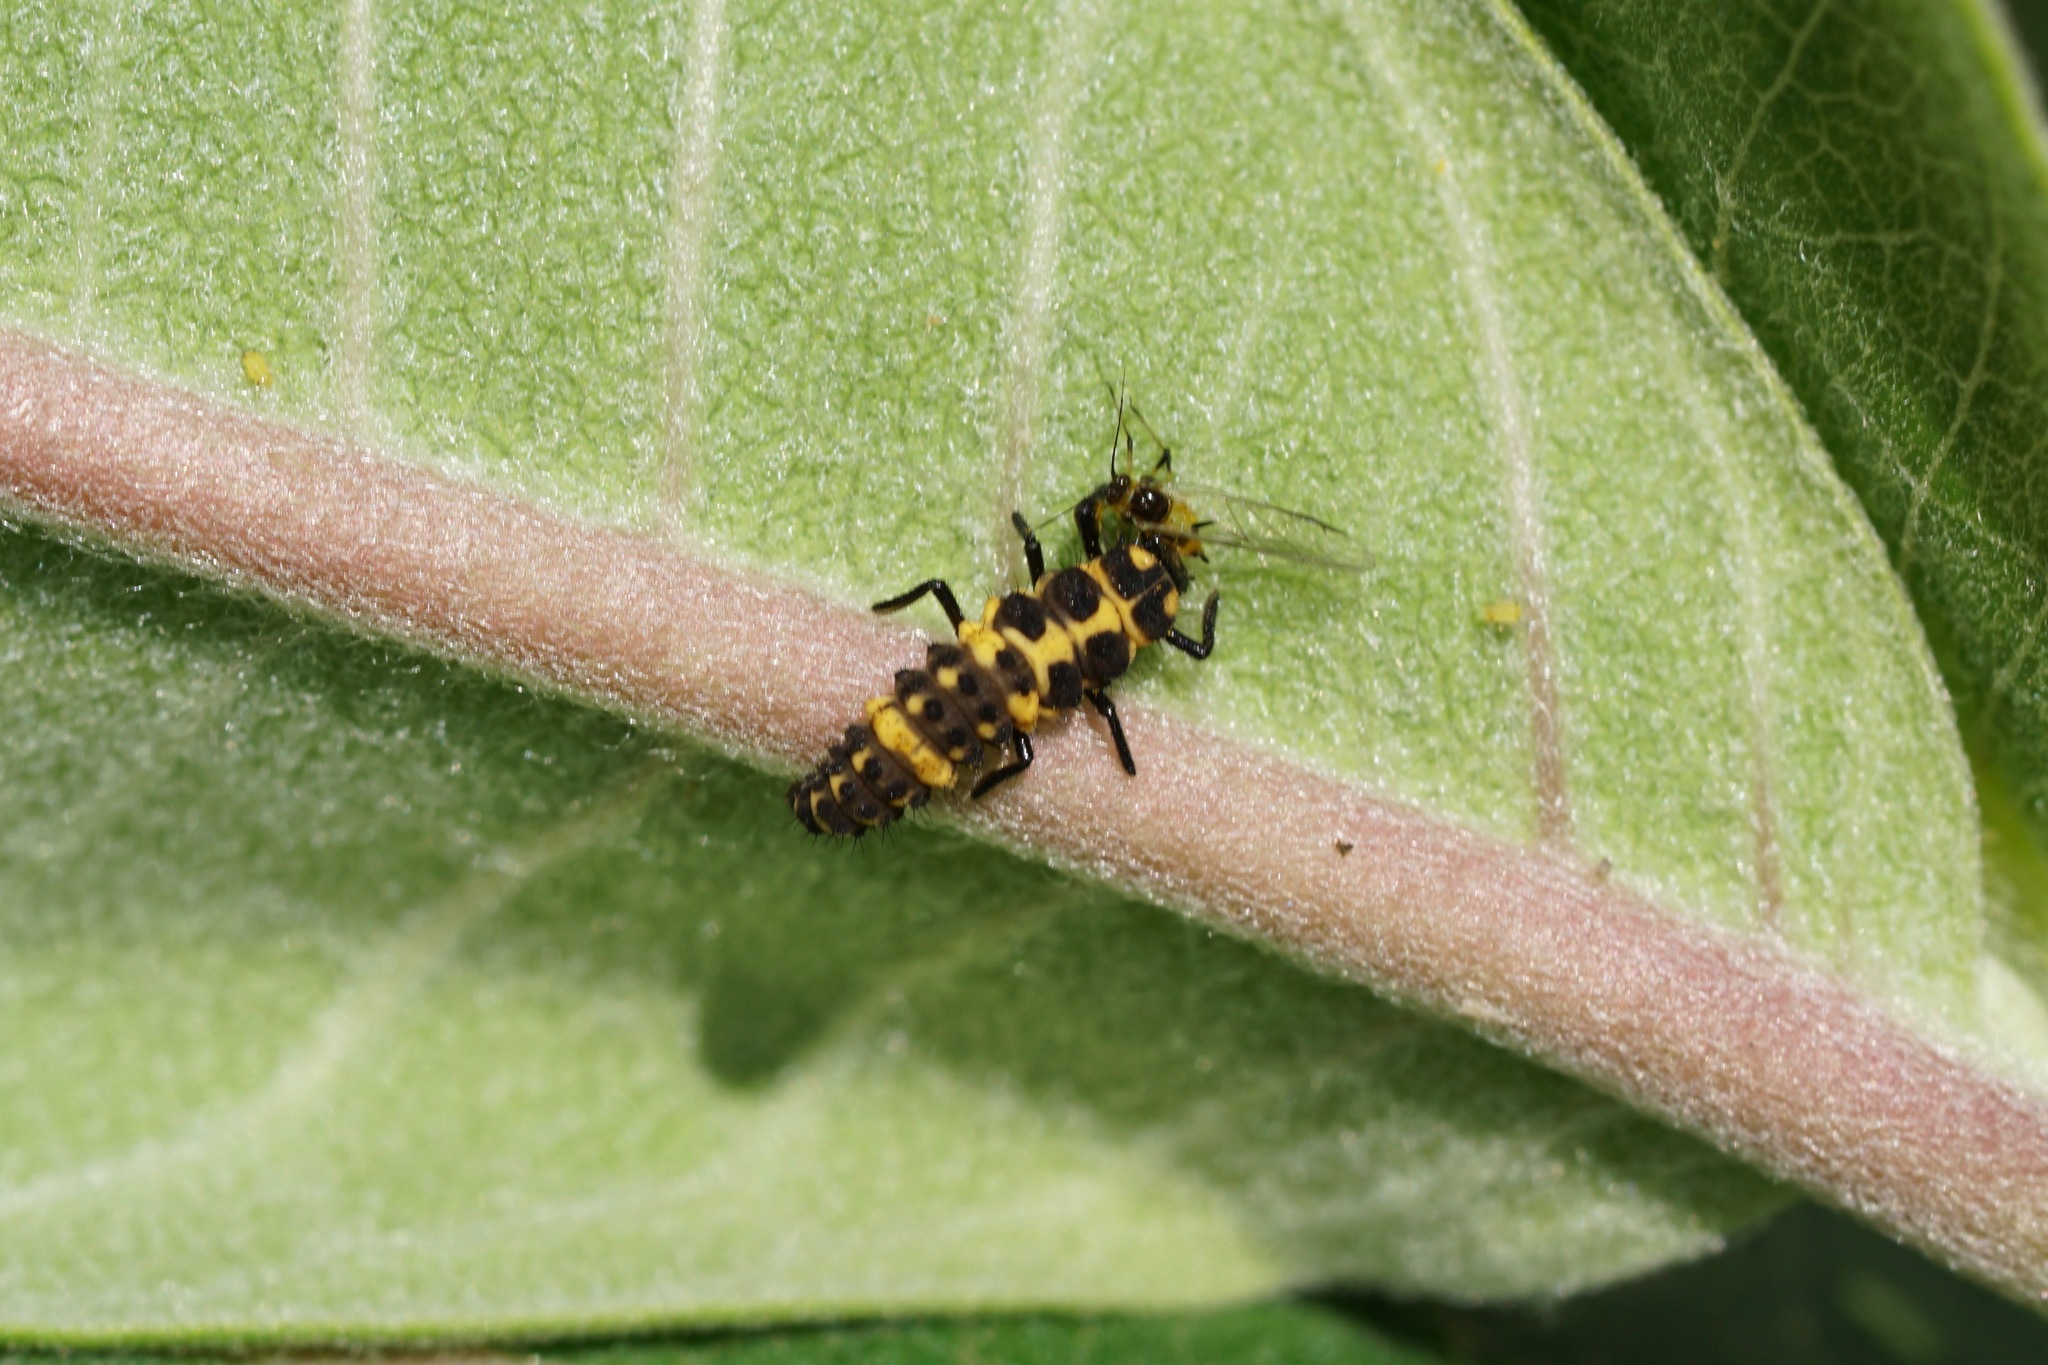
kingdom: Animalia
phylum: Arthropoda
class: Insecta
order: Coleoptera
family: Coccinellidae
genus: Coleomegilla
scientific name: Coleomegilla maculata
